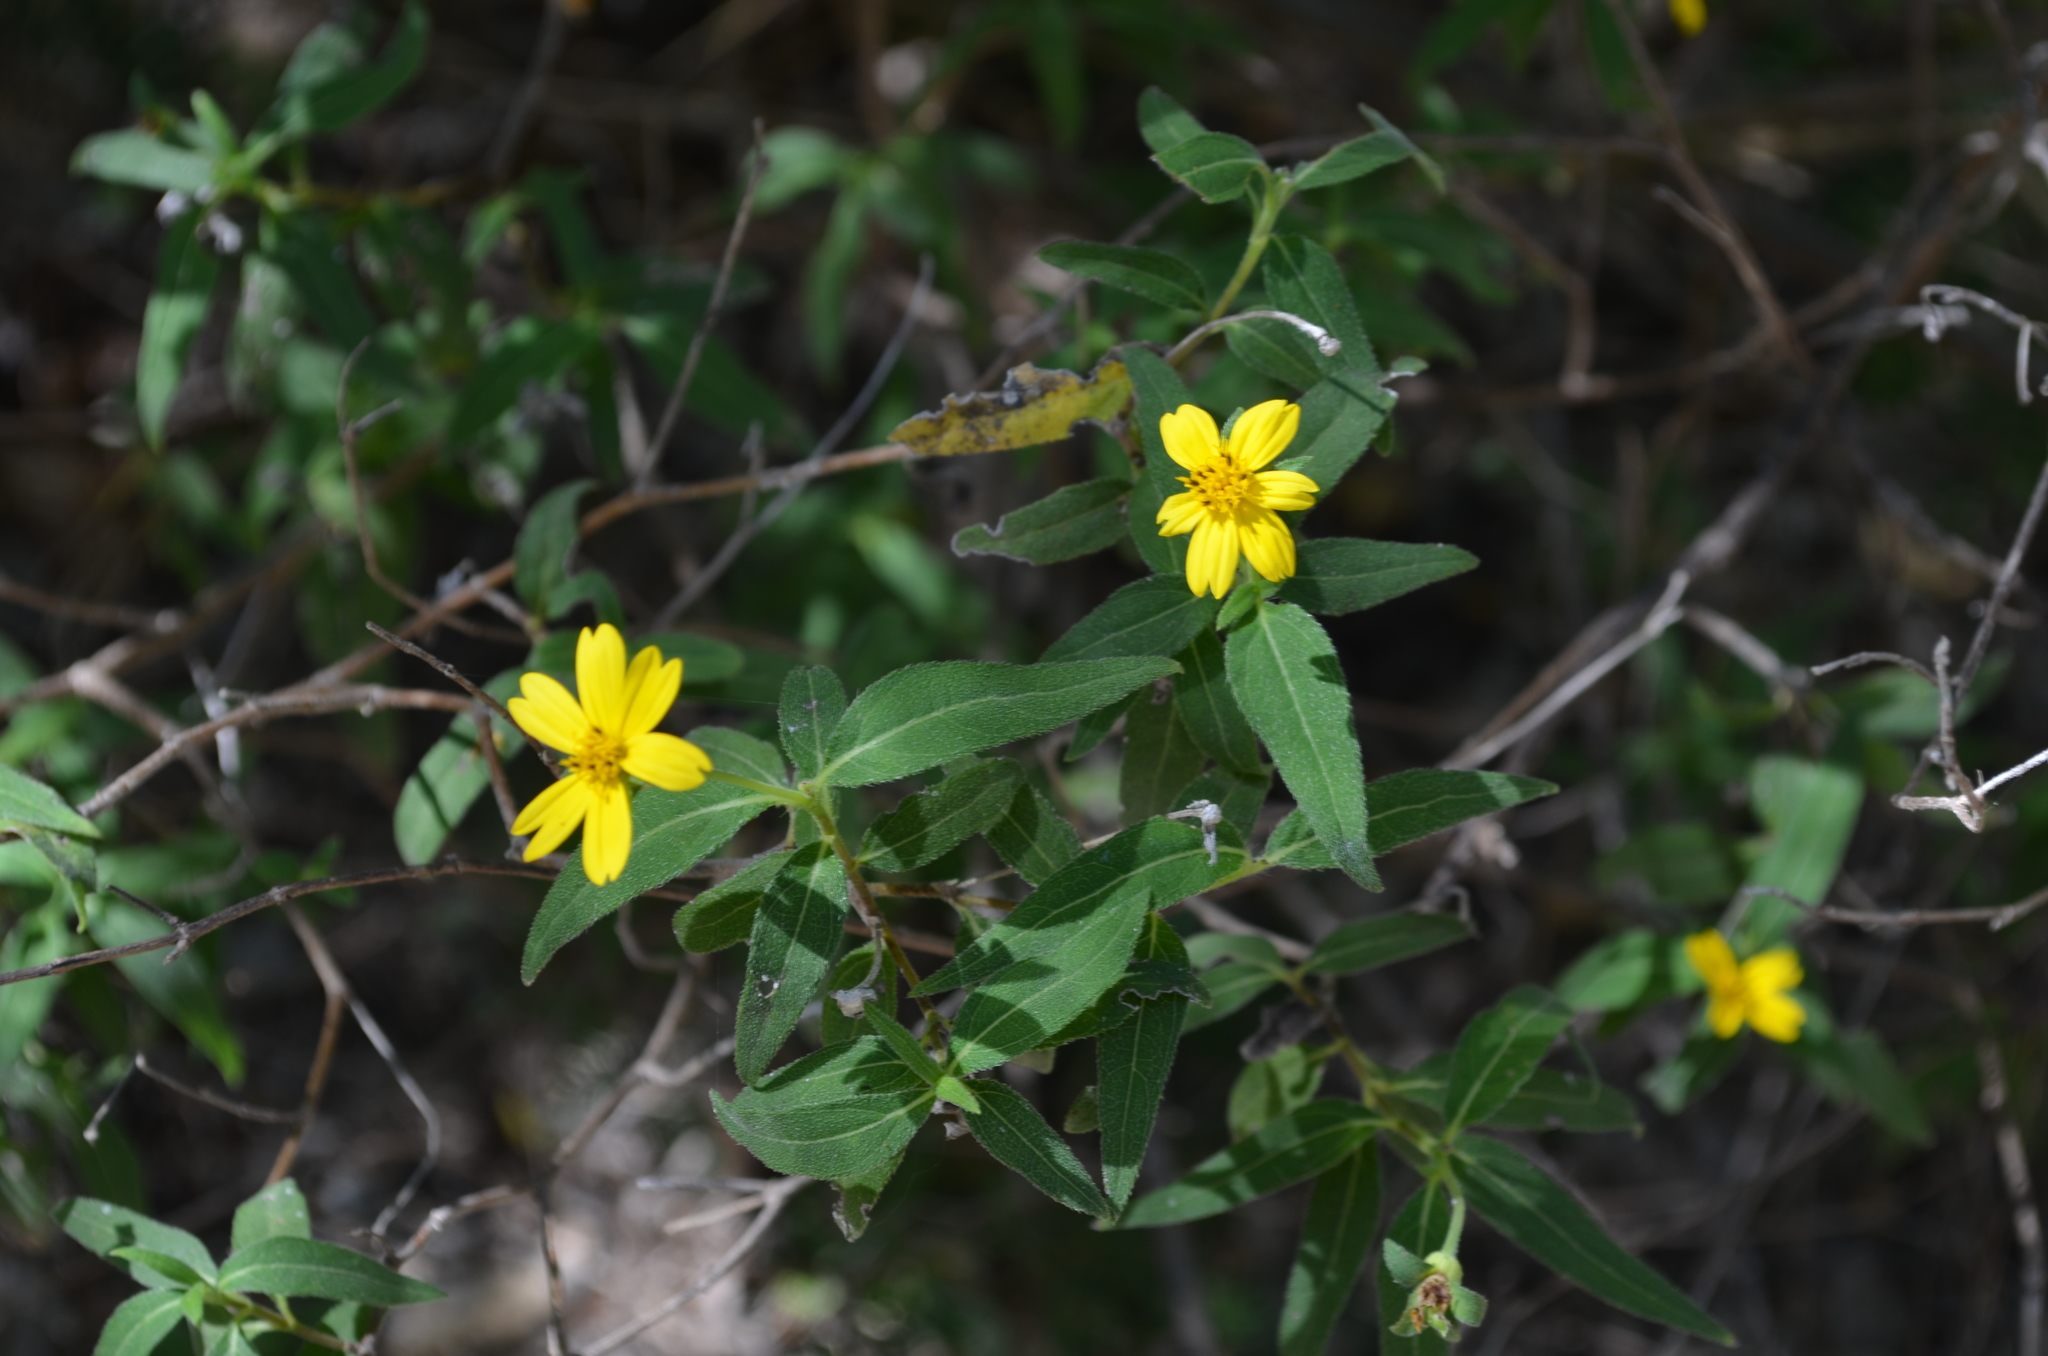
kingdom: Plantae
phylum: Tracheophyta
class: Magnoliopsida
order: Asterales
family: Asteraceae
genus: Wedelia
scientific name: Wedelia lanceolata
